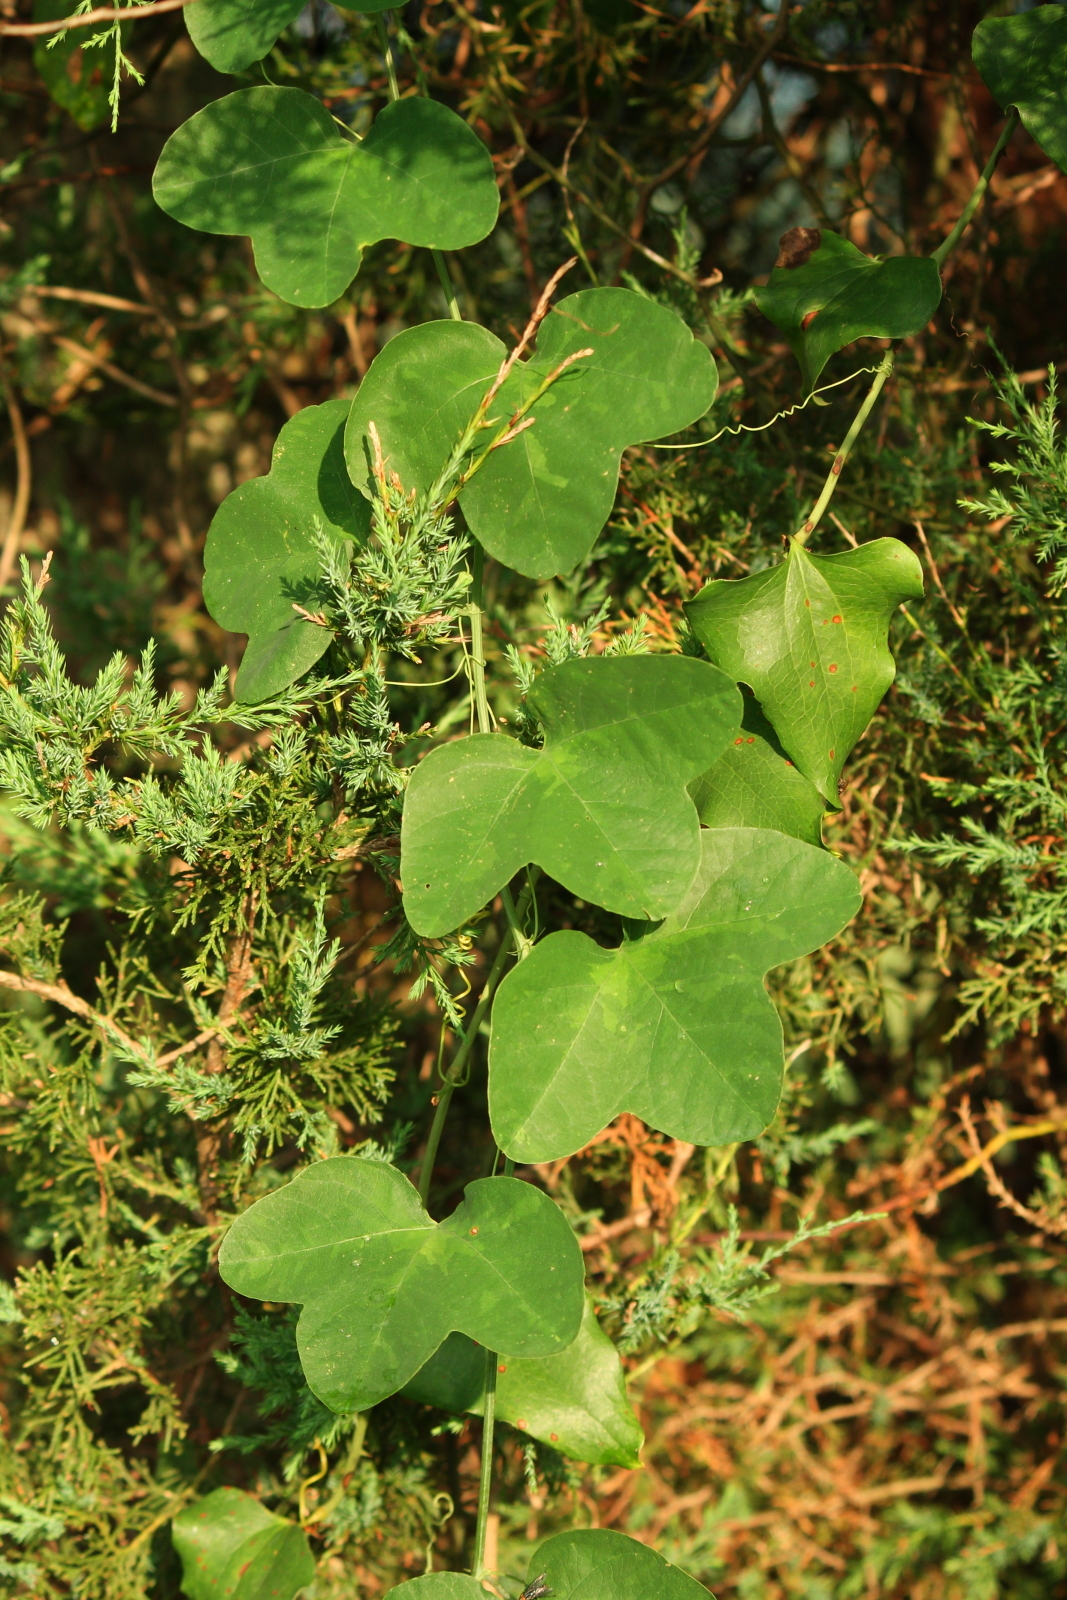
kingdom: Plantae
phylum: Tracheophyta
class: Magnoliopsida
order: Malpighiales
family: Passifloraceae
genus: Passiflora
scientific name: Passiflora lutea
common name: Yellow passionflower
